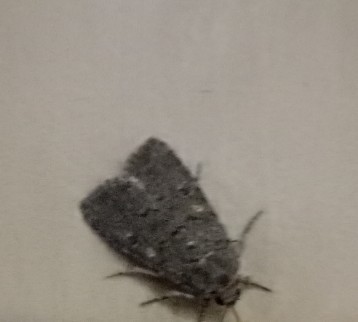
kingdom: Animalia
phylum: Arthropoda
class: Insecta
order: Lepidoptera
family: Noctuidae
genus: Spodoptera
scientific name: Spodoptera cilium
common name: Dark mottled willow
